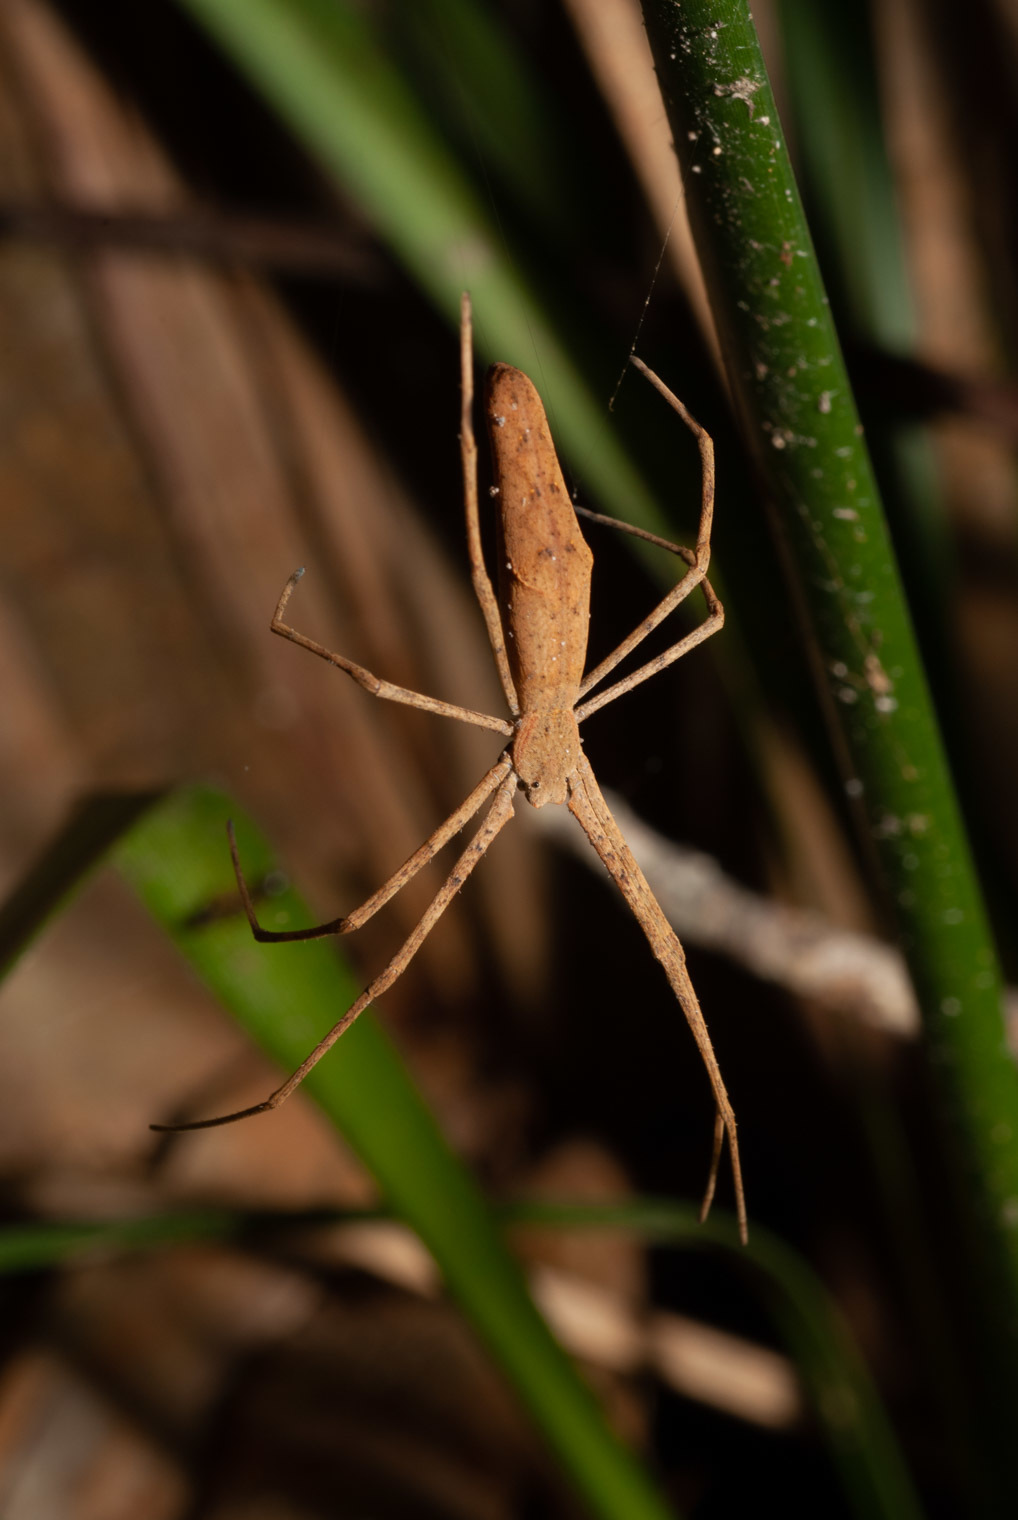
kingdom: Animalia
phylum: Arthropoda
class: Arachnida
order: Araneae
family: Deinopidae
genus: Deinopis
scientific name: Deinopis subrufa
